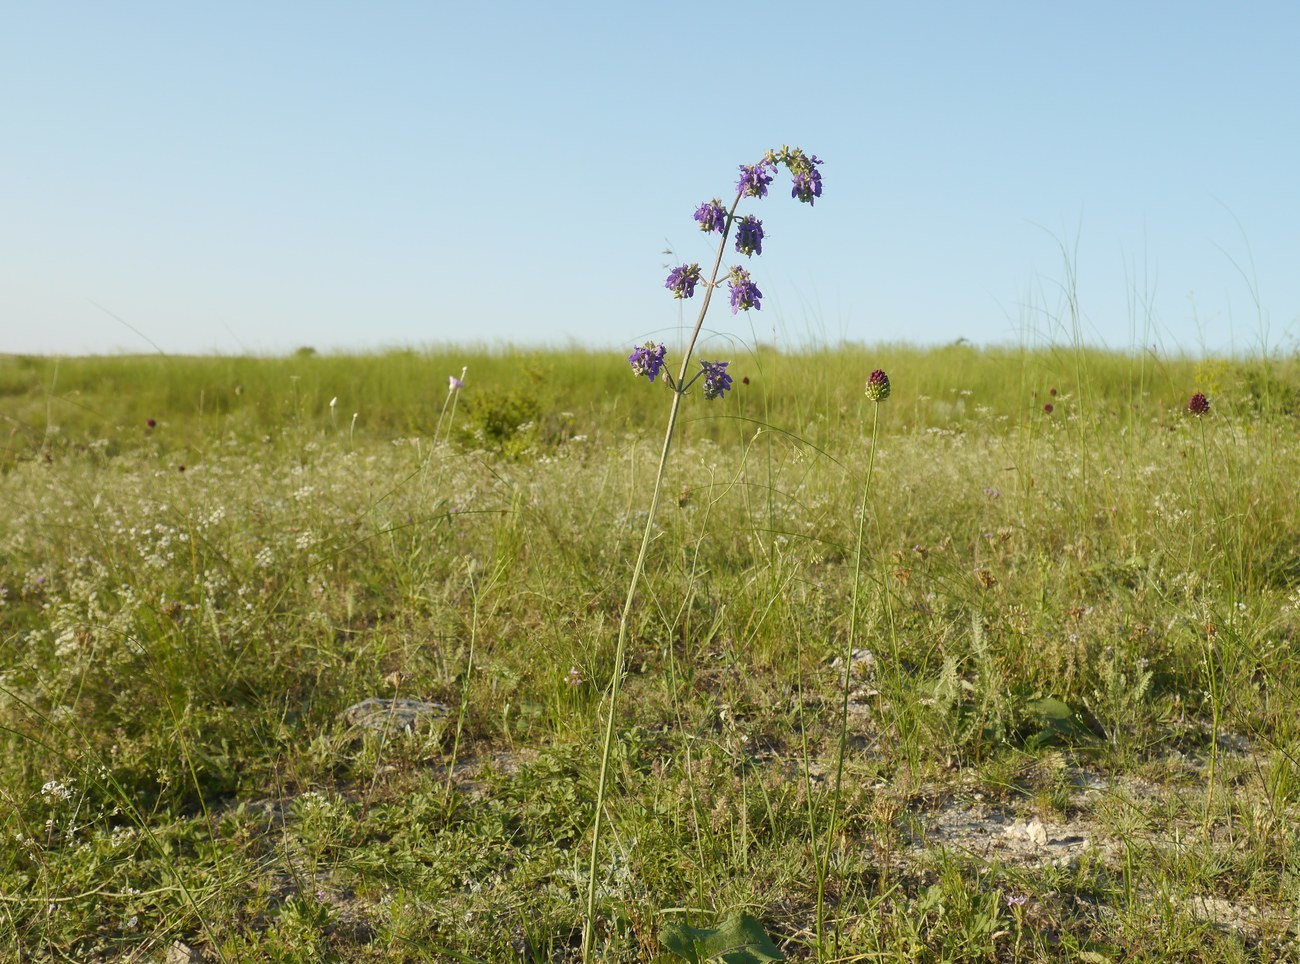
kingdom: Plantae
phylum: Tracheophyta
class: Magnoliopsida
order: Lamiales
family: Lamiaceae
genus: Salvia
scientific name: Salvia nutans
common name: Nodding sage
